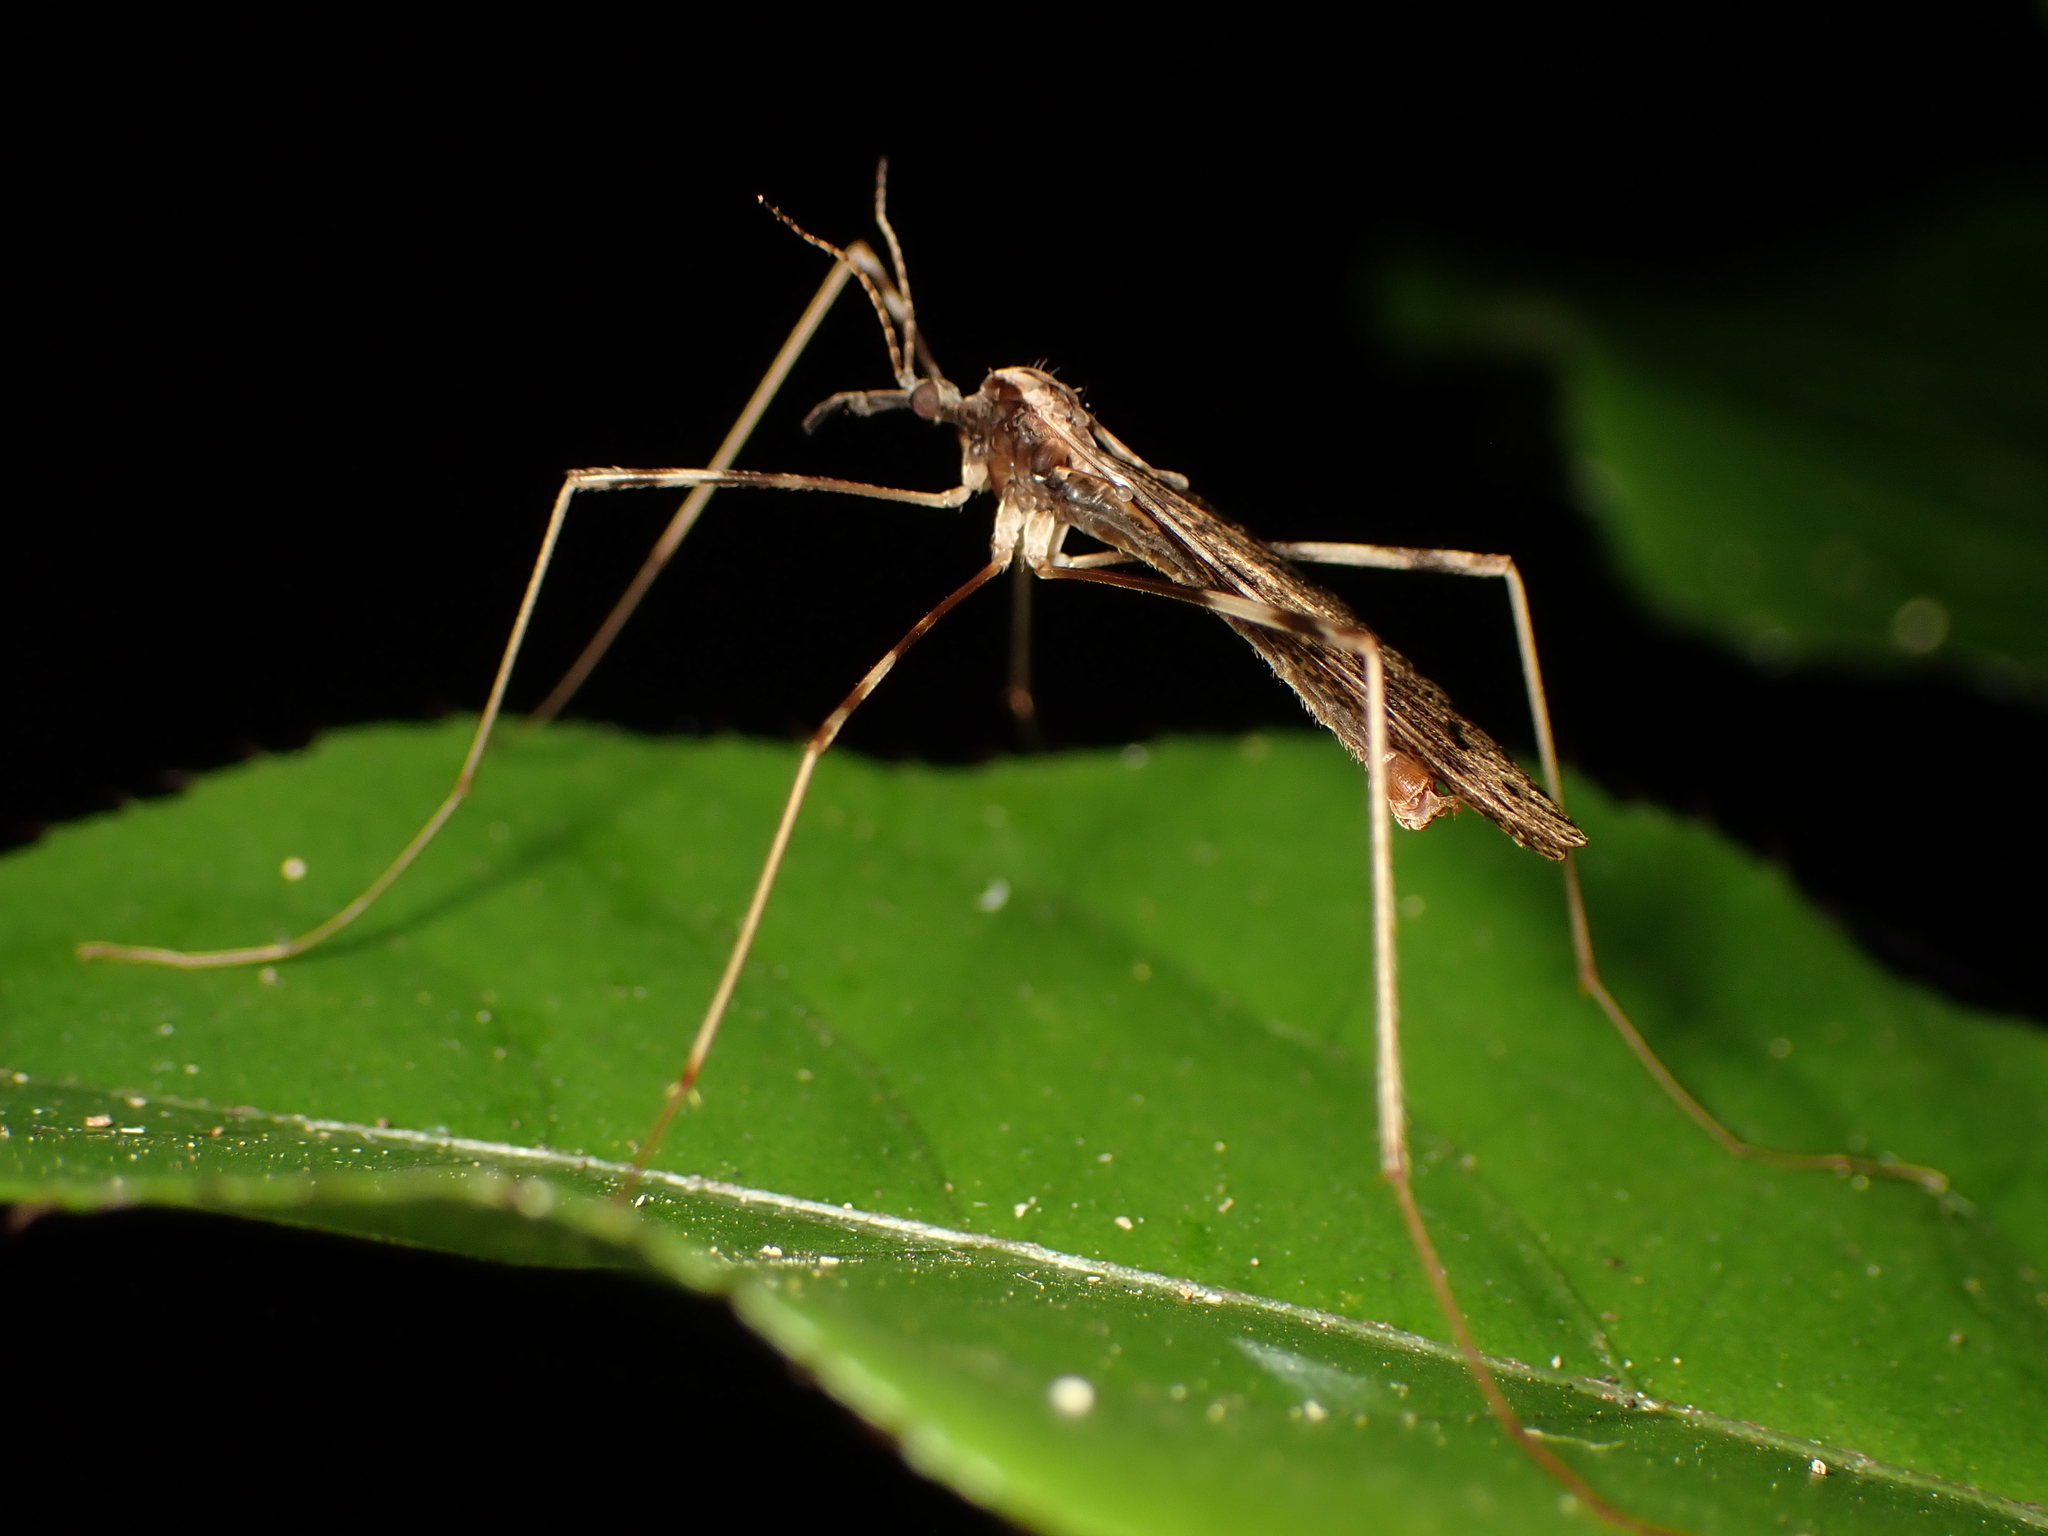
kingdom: Animalia
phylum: Arthropoda
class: Insecta
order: Diptera
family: Limoniidae
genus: Rhamphophila
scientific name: Rhamphophila sinistra
